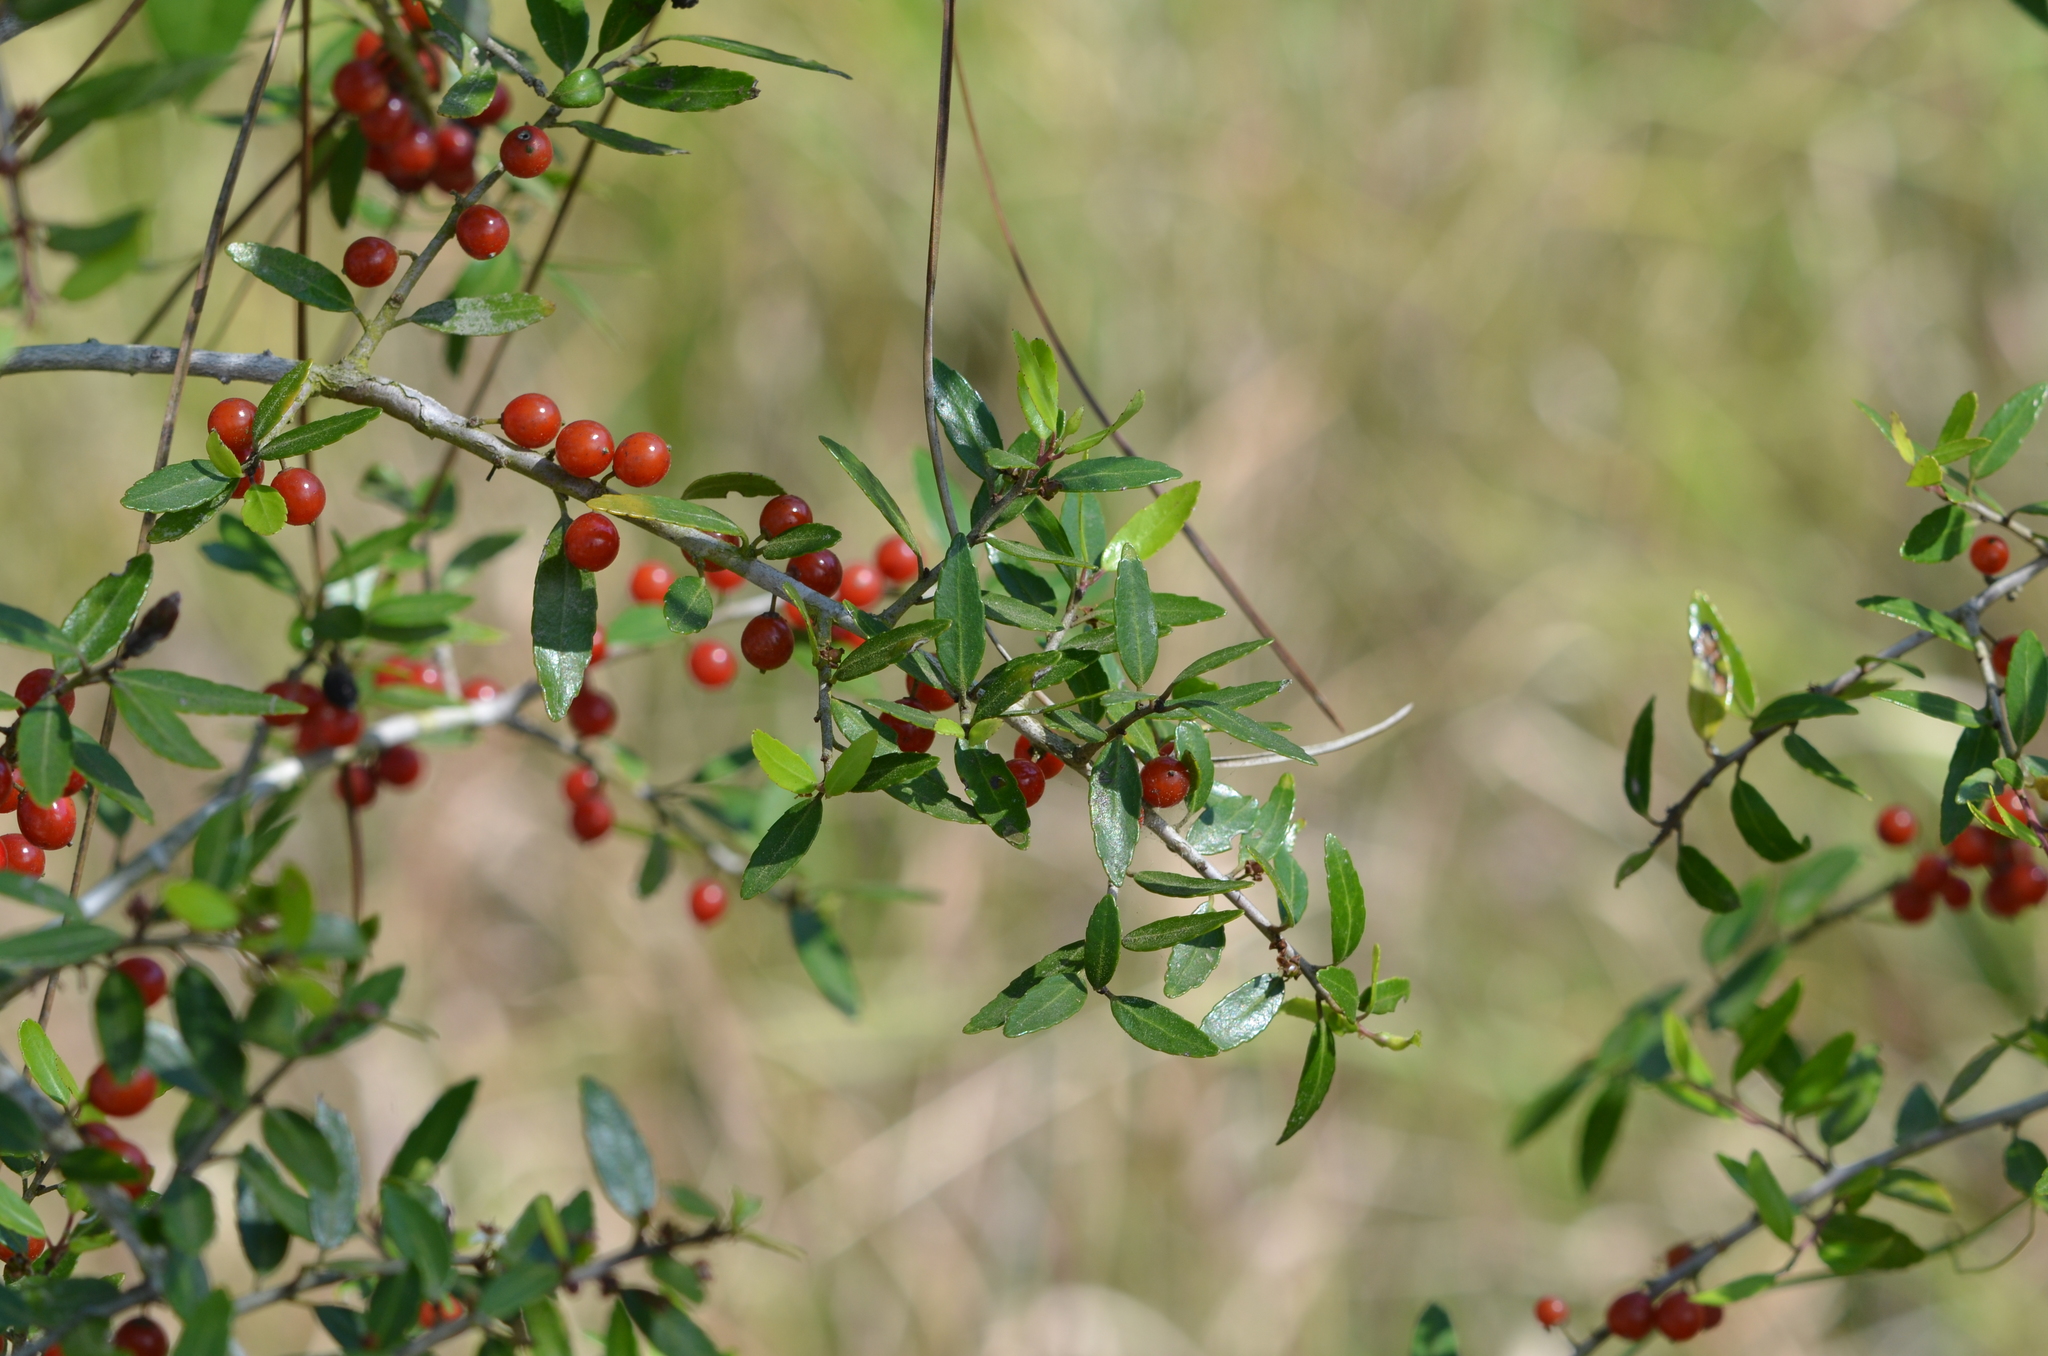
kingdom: Plantae
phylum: Tracheophyta
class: Magnoliopsida
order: Aquifoliales
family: Aquifoliaceae
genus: Ilex
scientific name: Ilex vomitoria
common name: Yaupon holly
